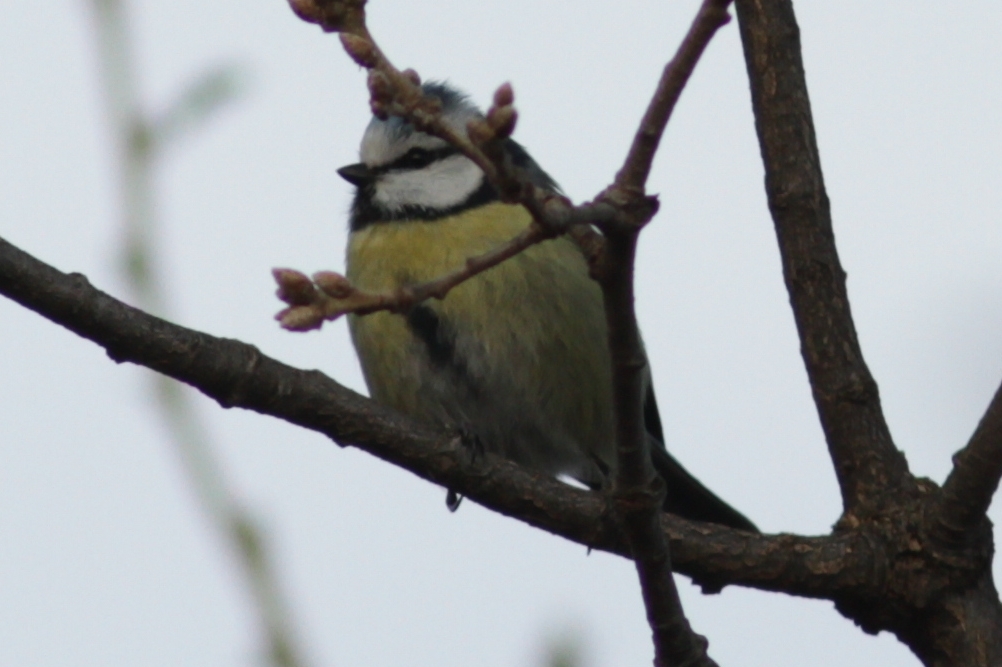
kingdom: Animalia
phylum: Chordata
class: Aves
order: Passeriformes
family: Paridae
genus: Cyanistes
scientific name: Cyanistes caeruleus
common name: Eurasian blue tit
